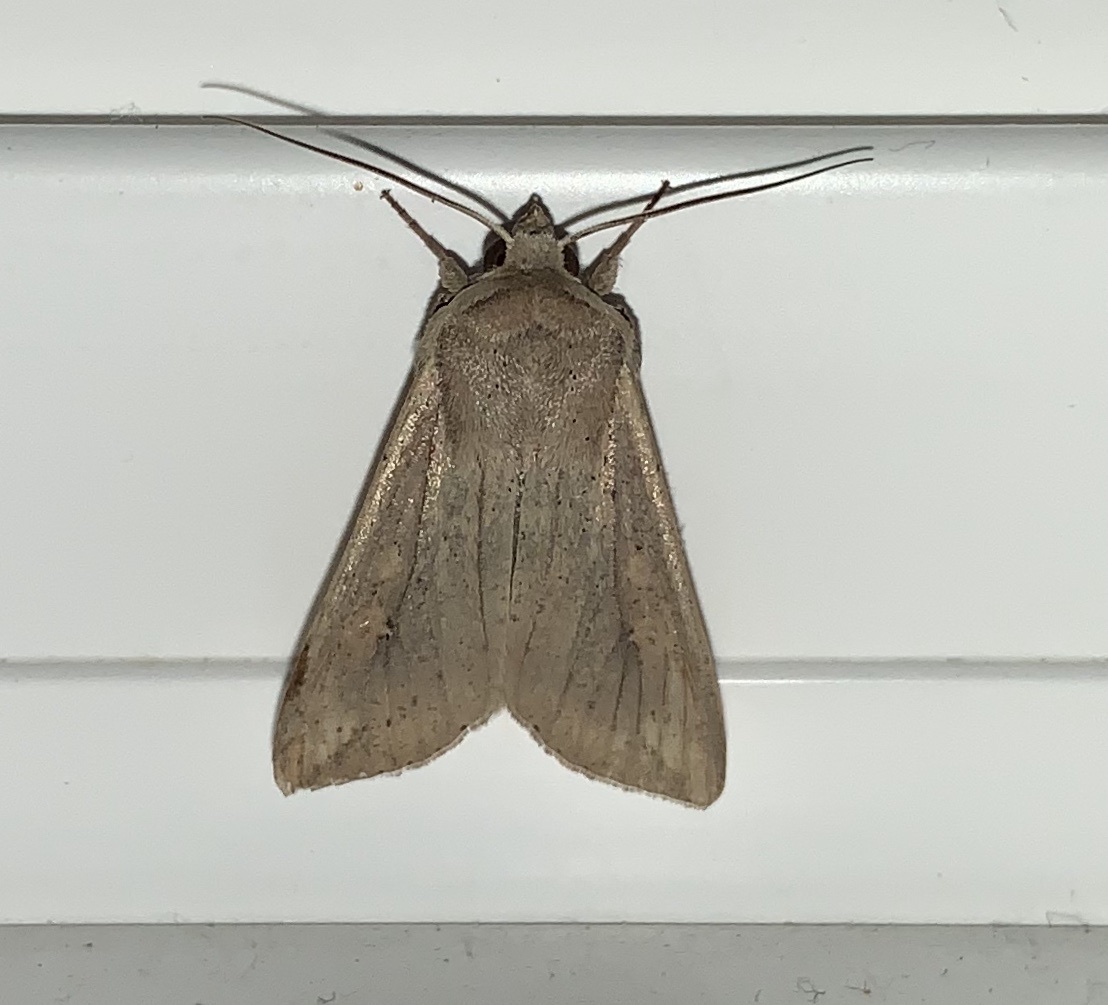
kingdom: Animalia
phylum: Arthropoda
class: Insecta
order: Lepidoptera
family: Noctuidae
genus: Mythimna
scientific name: Mythimna unipuncta
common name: White-speck
